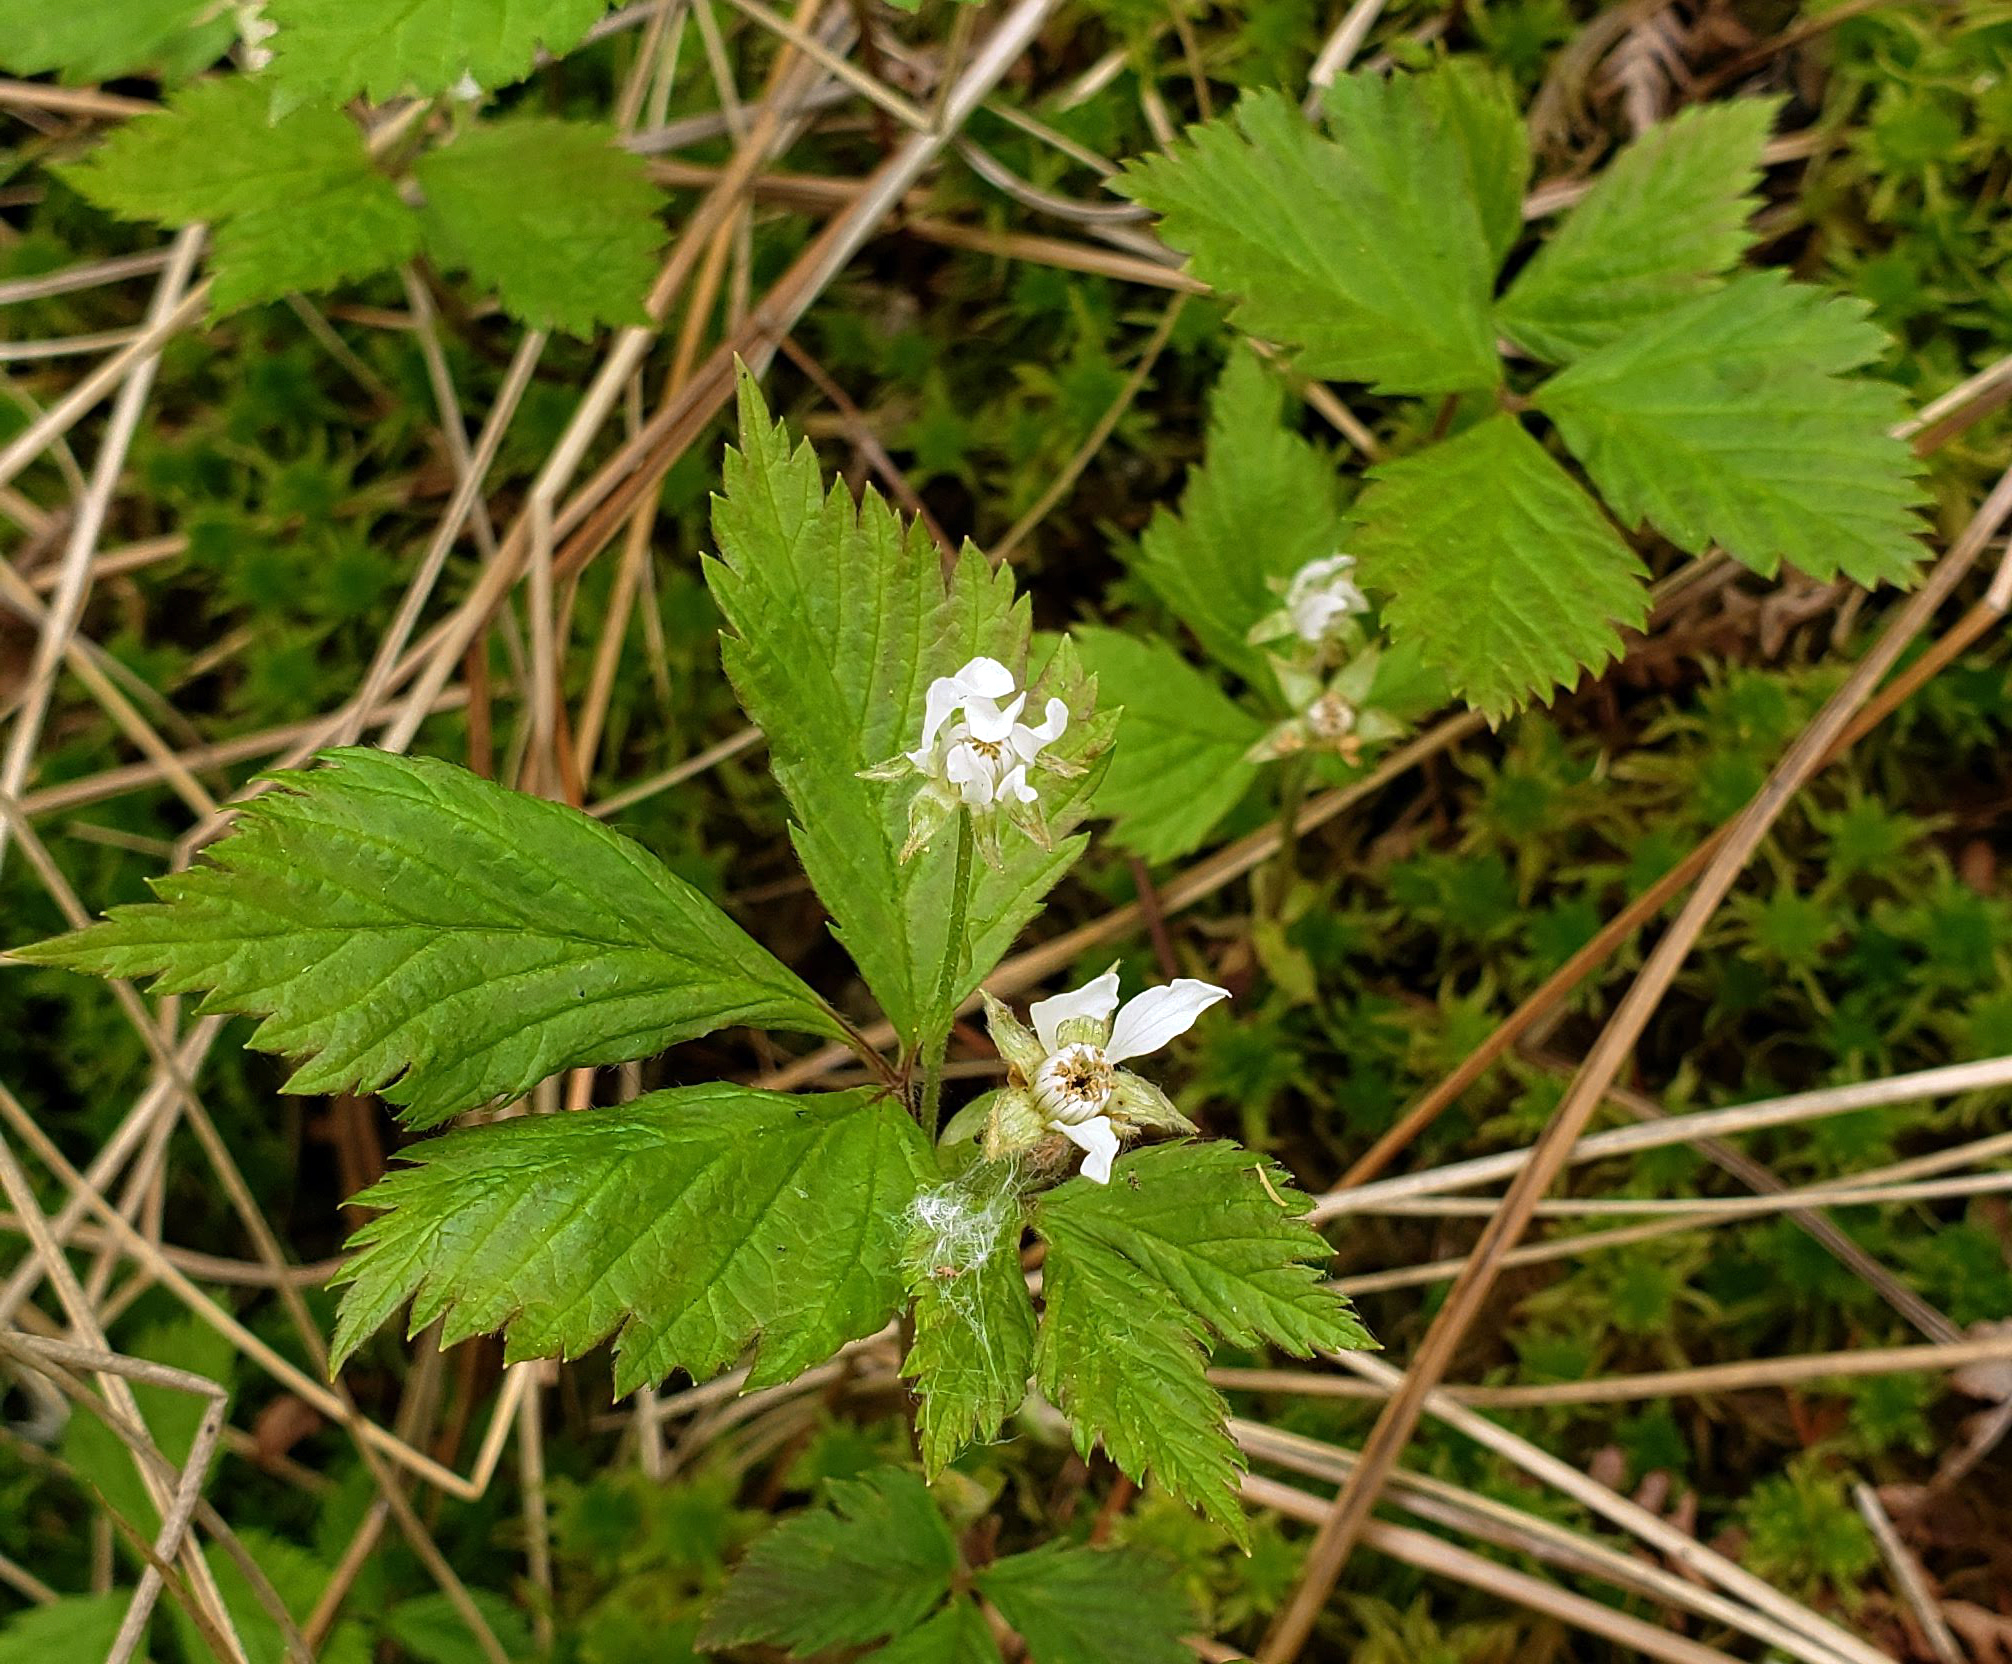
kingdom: Plantae
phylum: Tracheophyta
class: Magnoliopsida
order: Rosales
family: Rosaceae
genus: Rubus
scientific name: Rubus pubescens
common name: Dwarf raspberry
